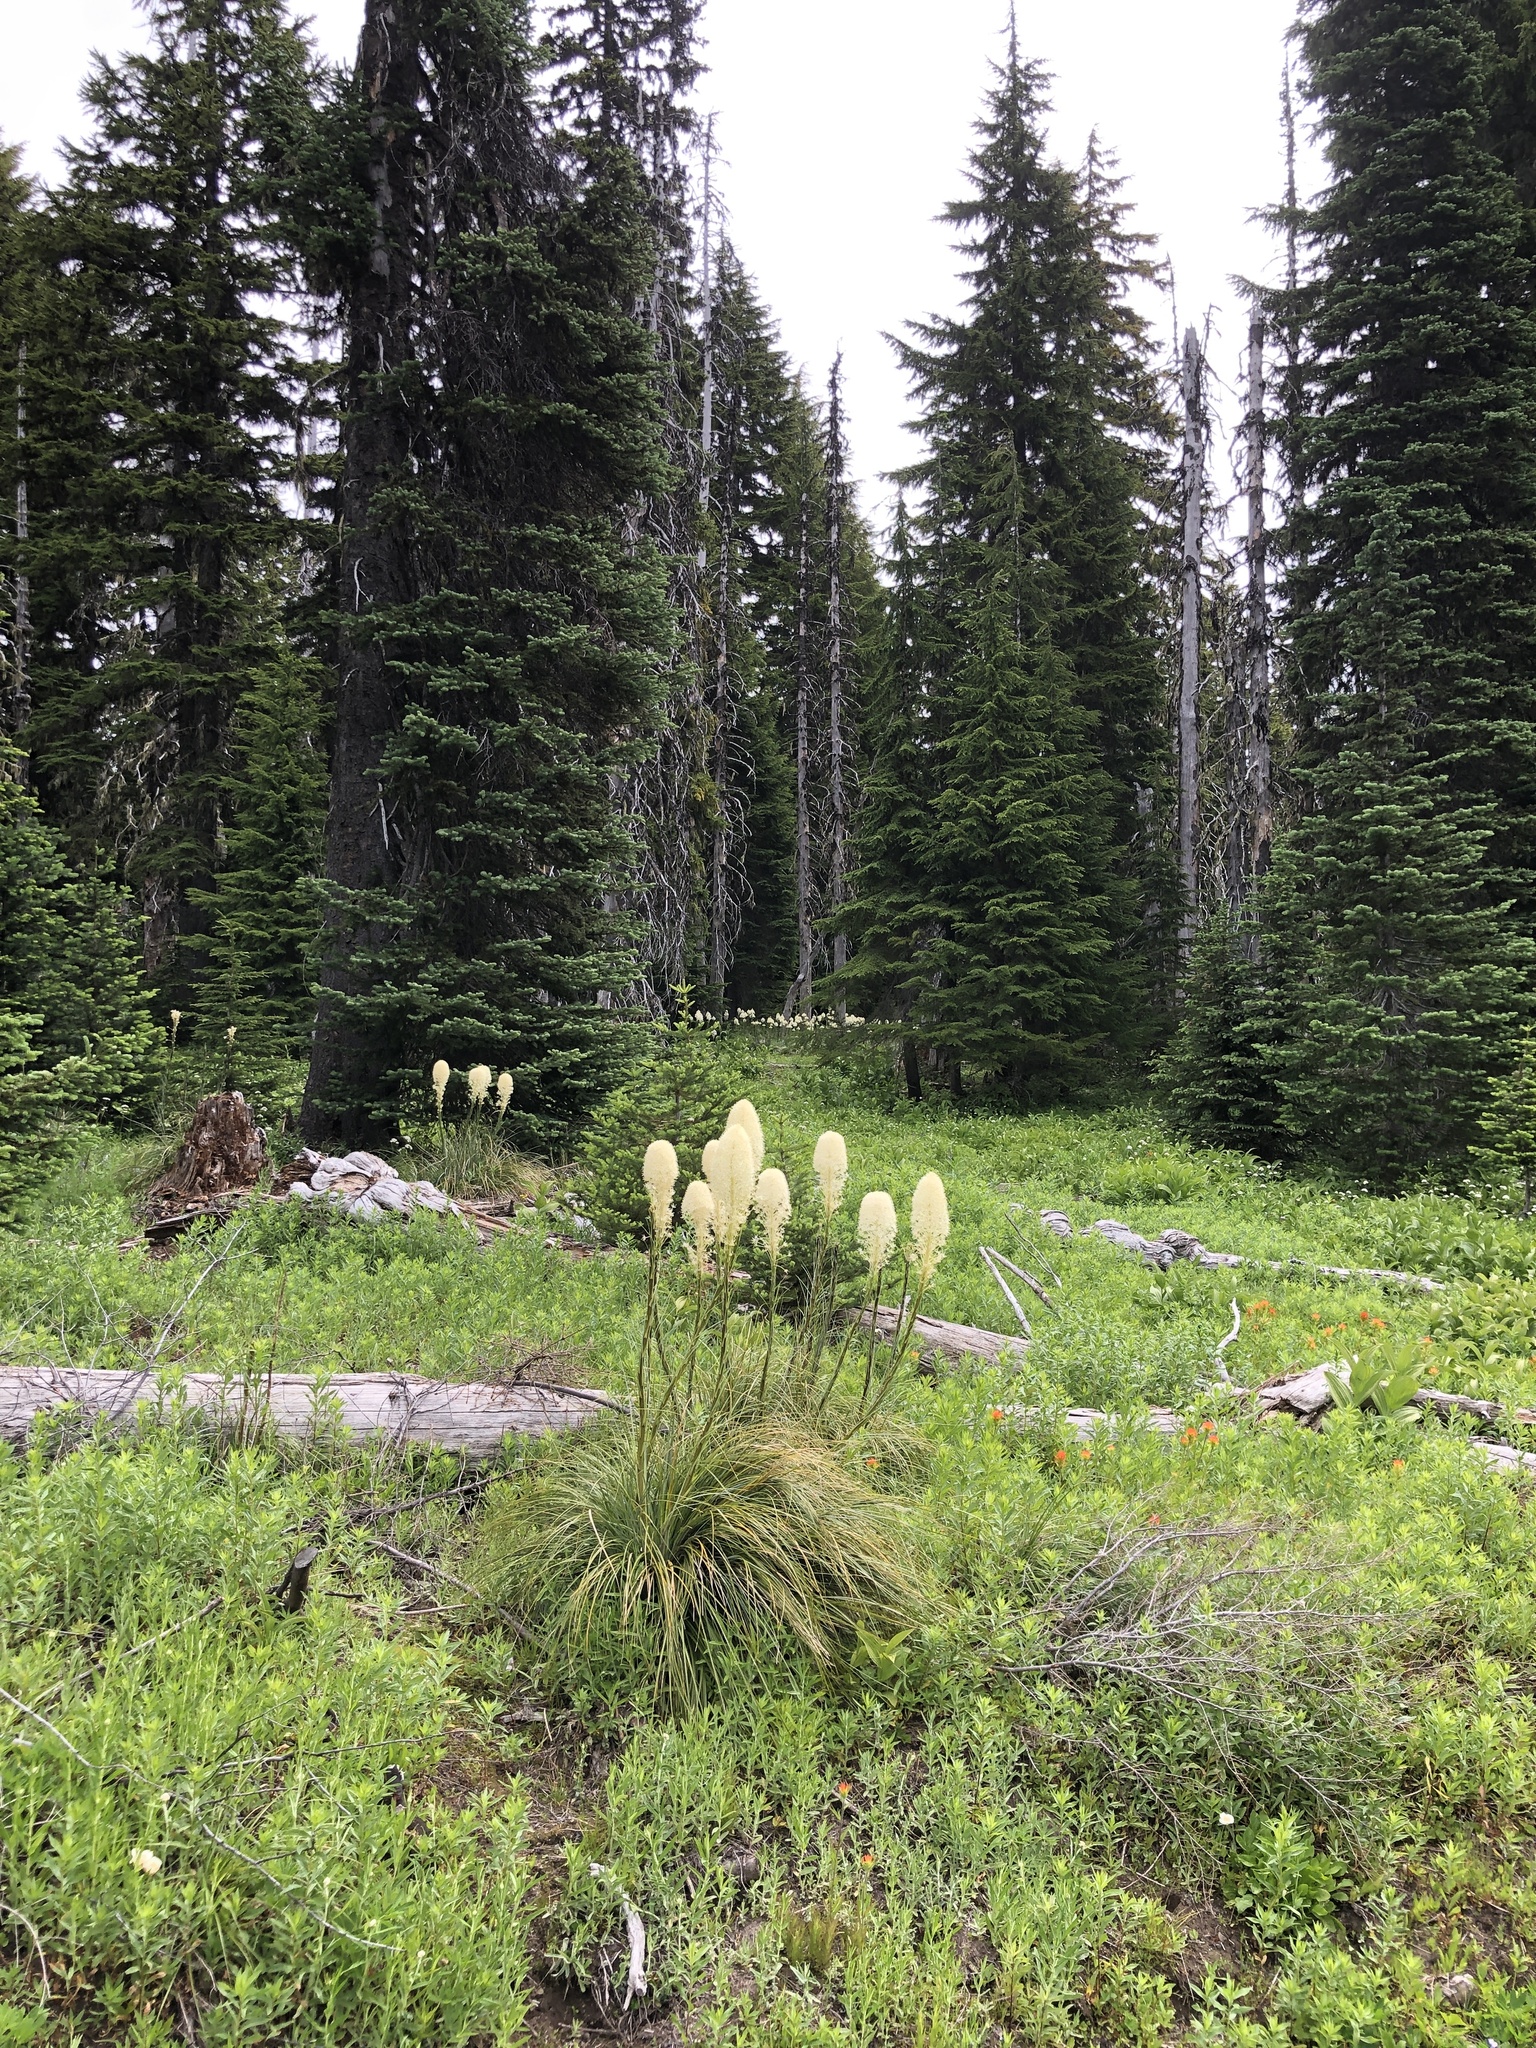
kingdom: Plantae
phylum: Tracheophyta
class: Liliopsida
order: Liliales
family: Melanthiaceae
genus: Xerophyllum
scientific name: Xerophyllum tenax
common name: Bear-grass
